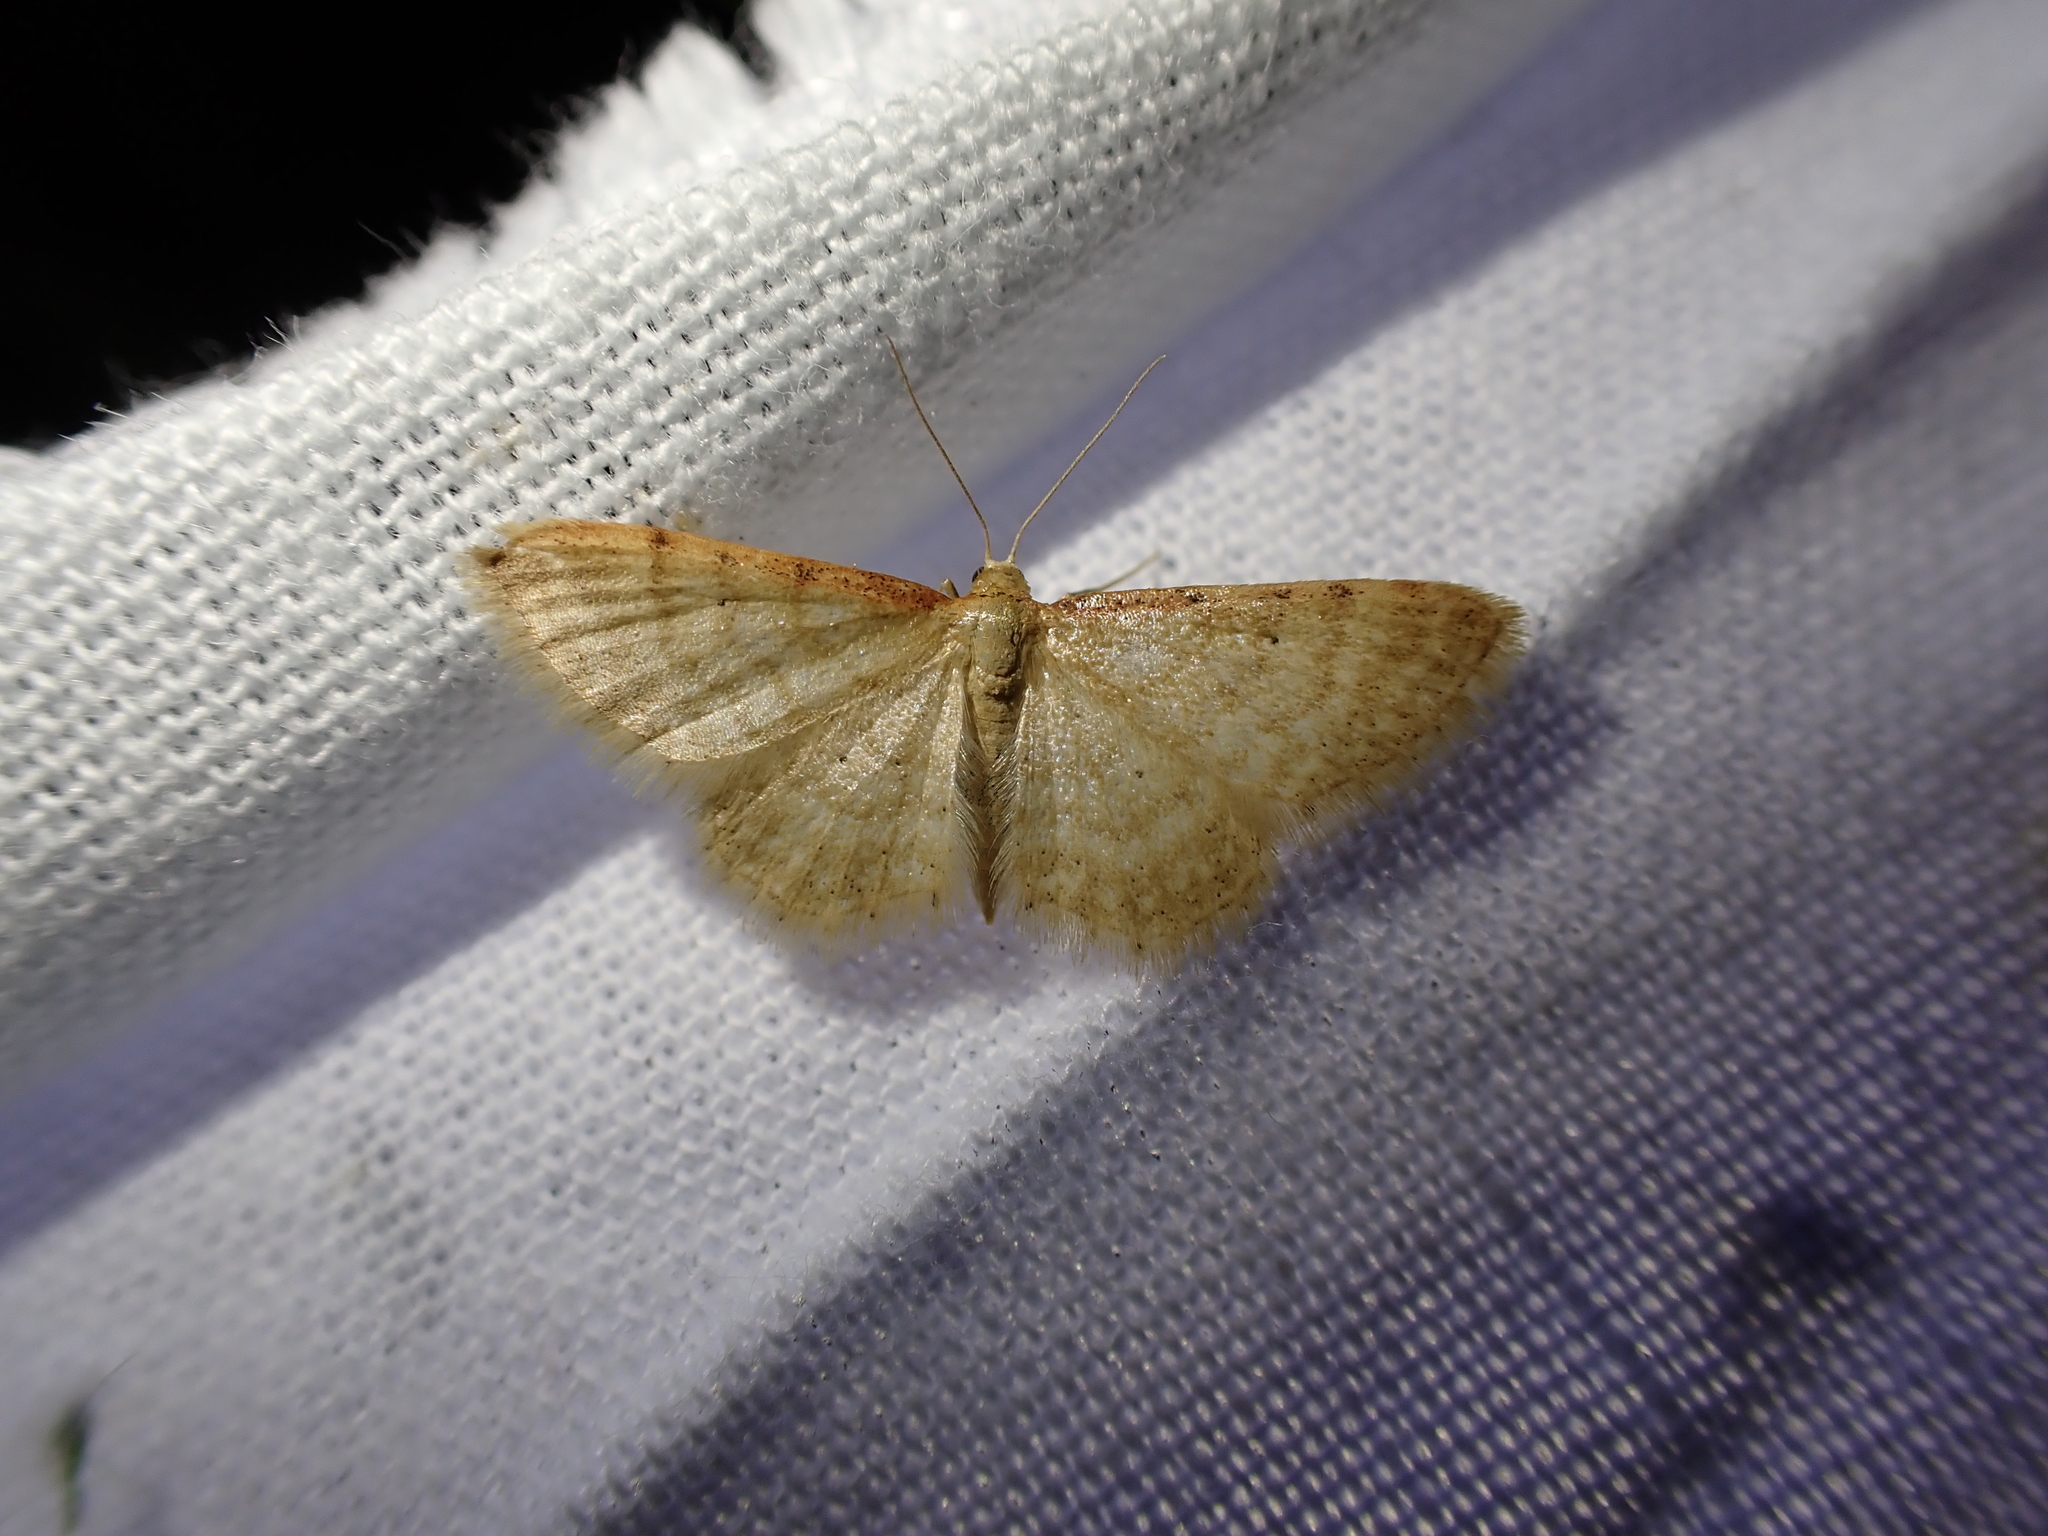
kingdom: Animalia
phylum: Arthropoda
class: Insecta
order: Lepidoptera
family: Geometridae
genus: Idaea
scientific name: Idaea humiliata
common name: Isle of wight wave
